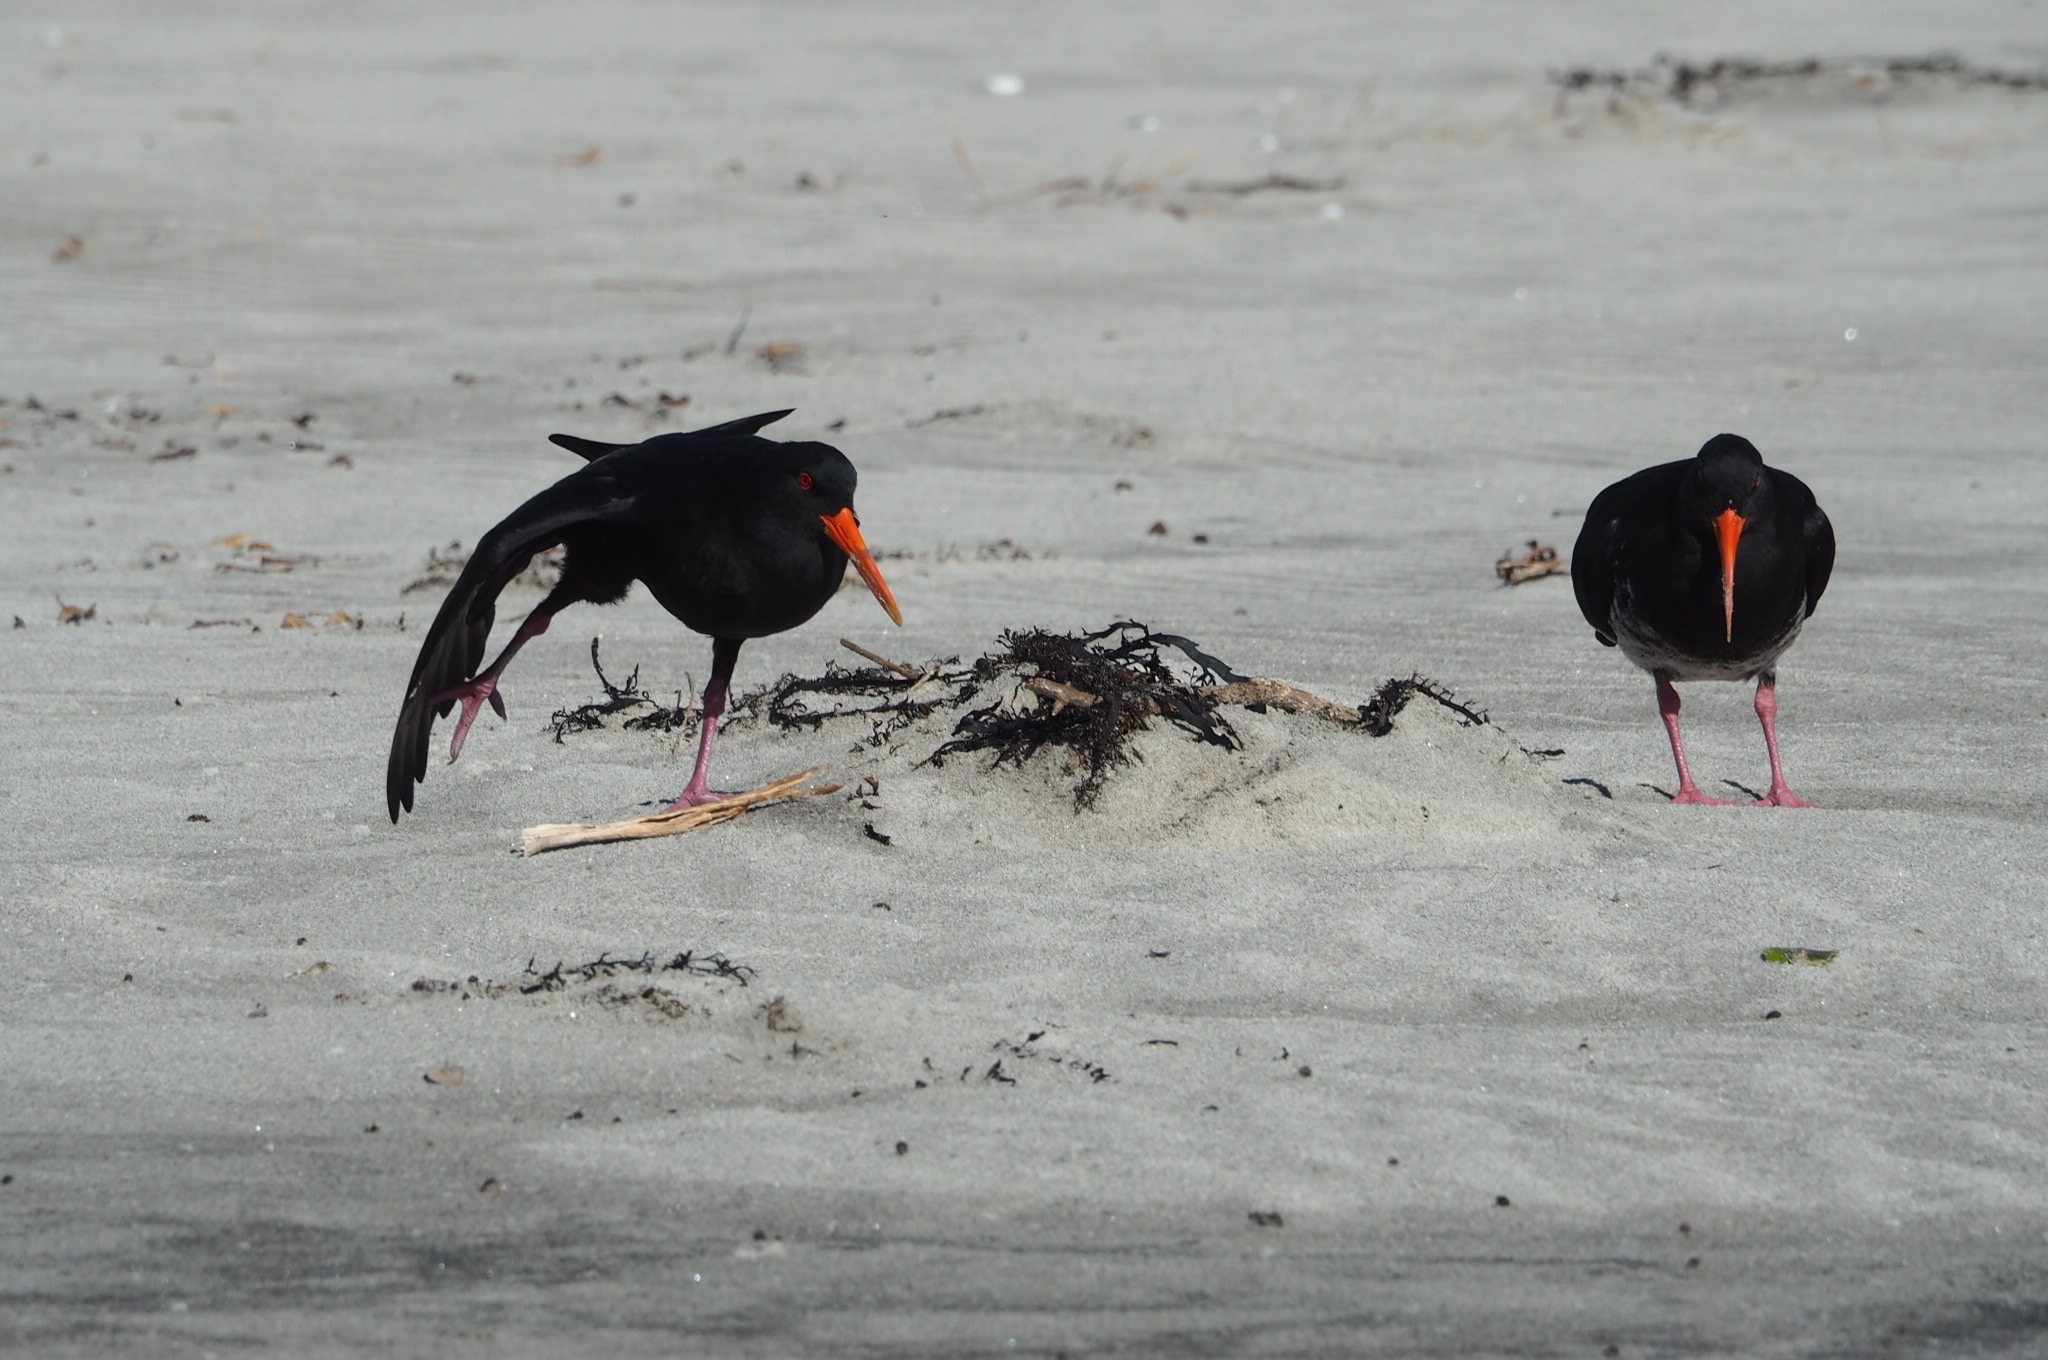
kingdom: Animalia
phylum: Chordata
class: Aves
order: Charadriiformes
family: Haematopodidae
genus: Haematopus
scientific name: Haematopus unicolor
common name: Variable oystercatcher
